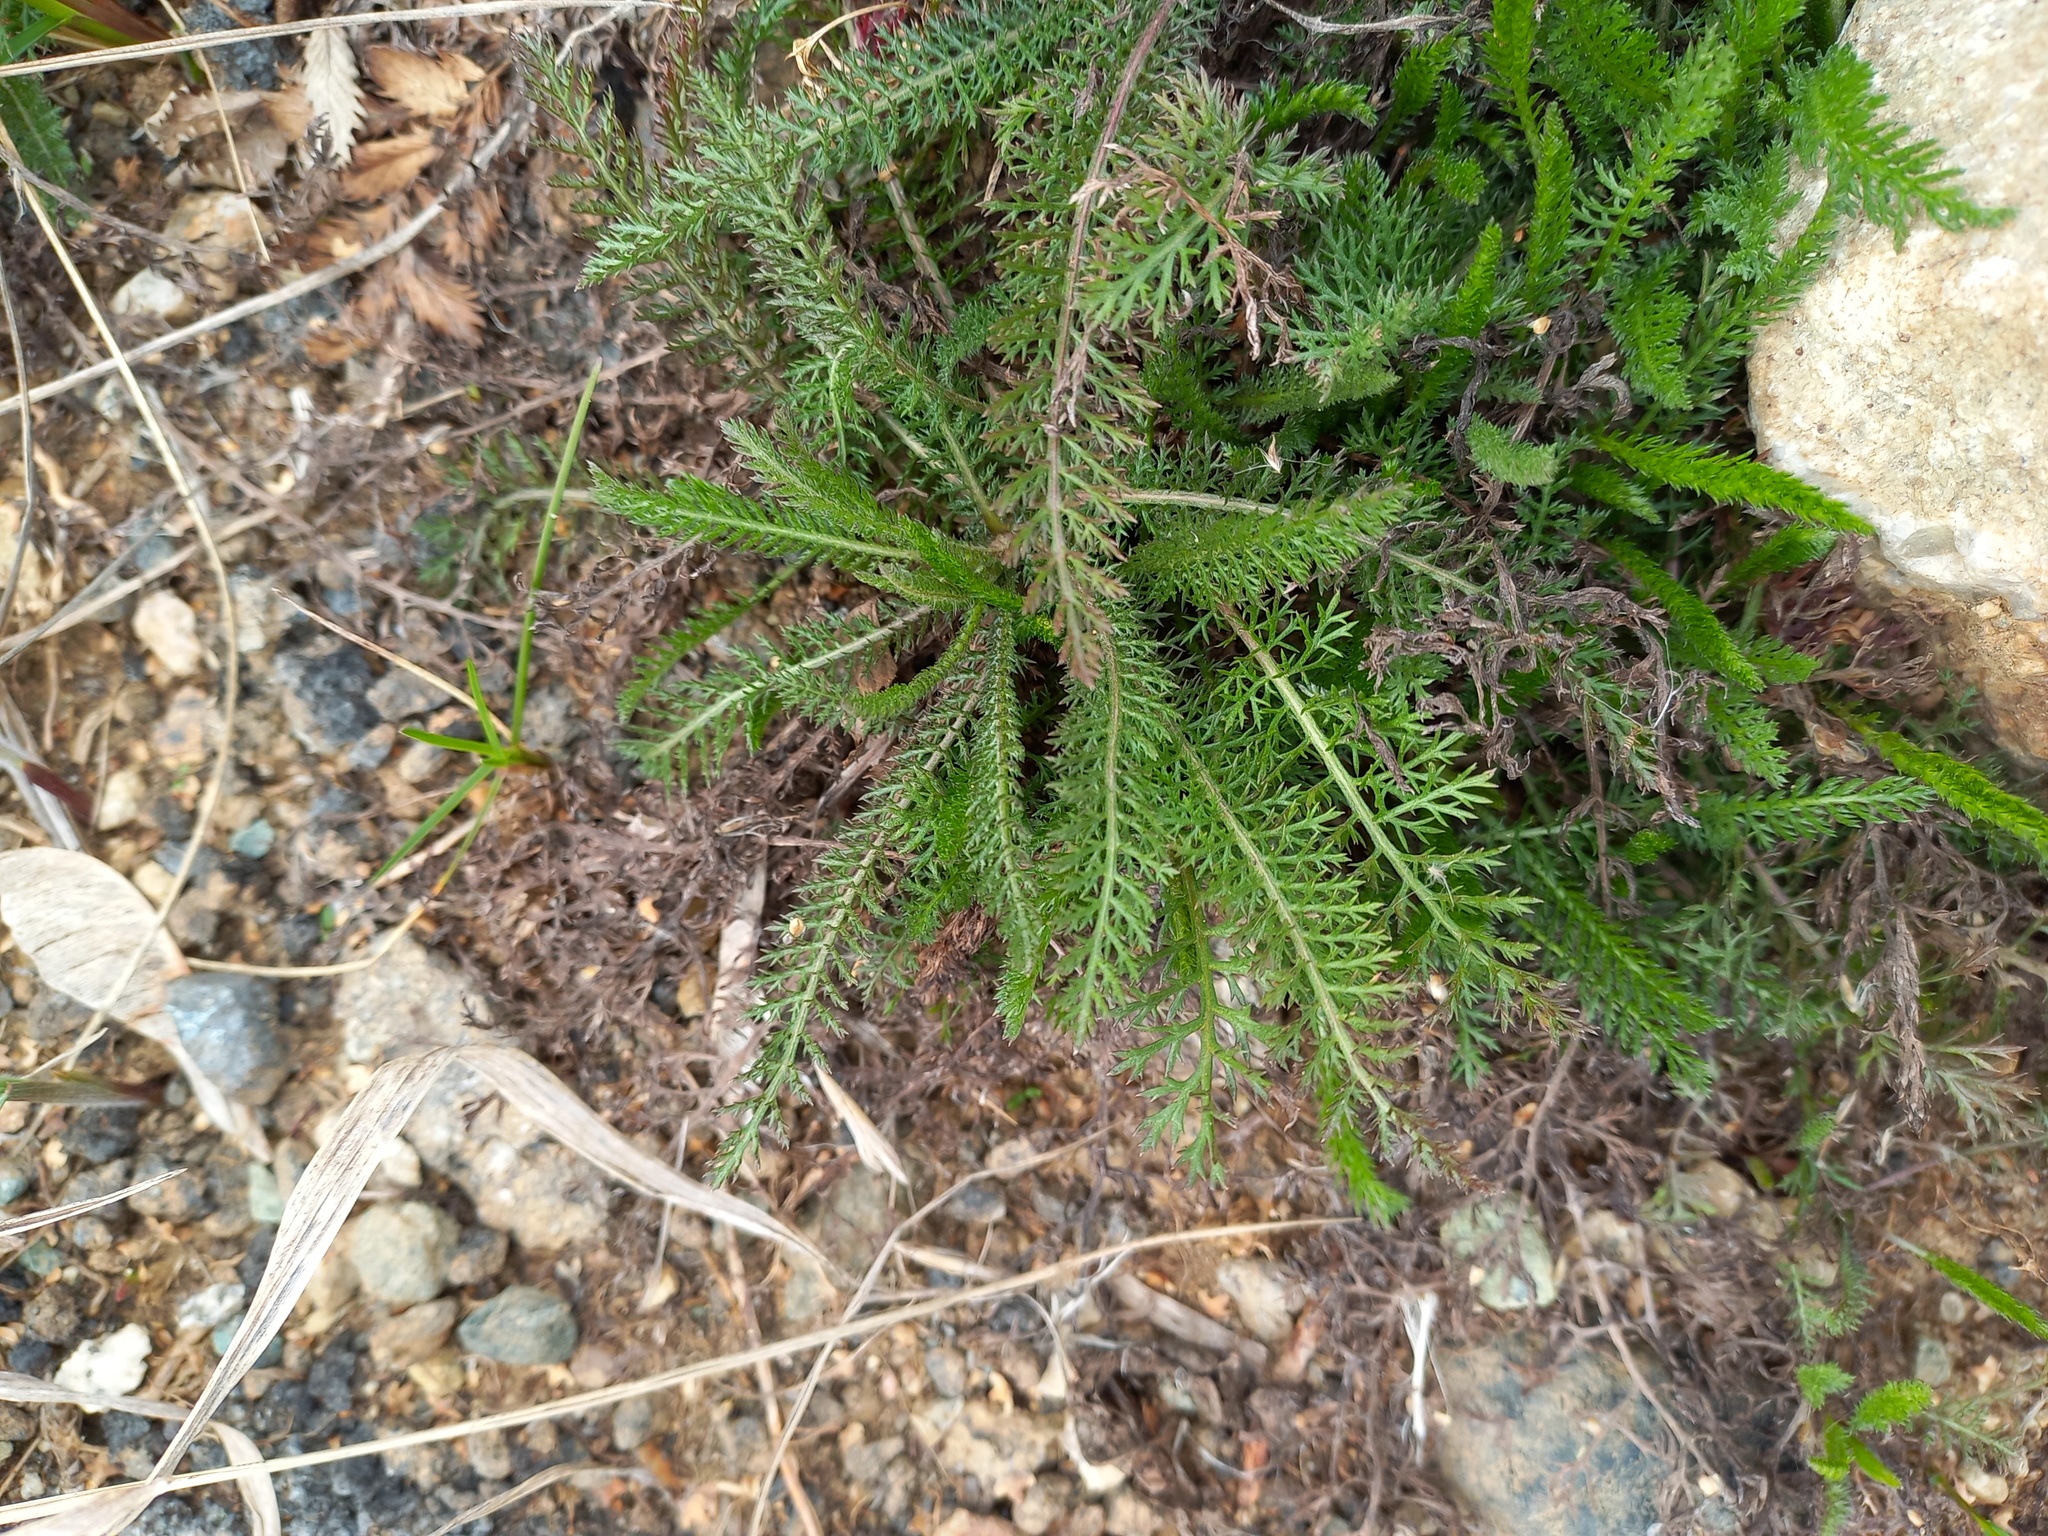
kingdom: Plantae
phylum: Tracheophyta
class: Magnoliopsida
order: Asterales
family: Asteraceae
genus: Achillea
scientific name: Achillea millefolium
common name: Yarrow
